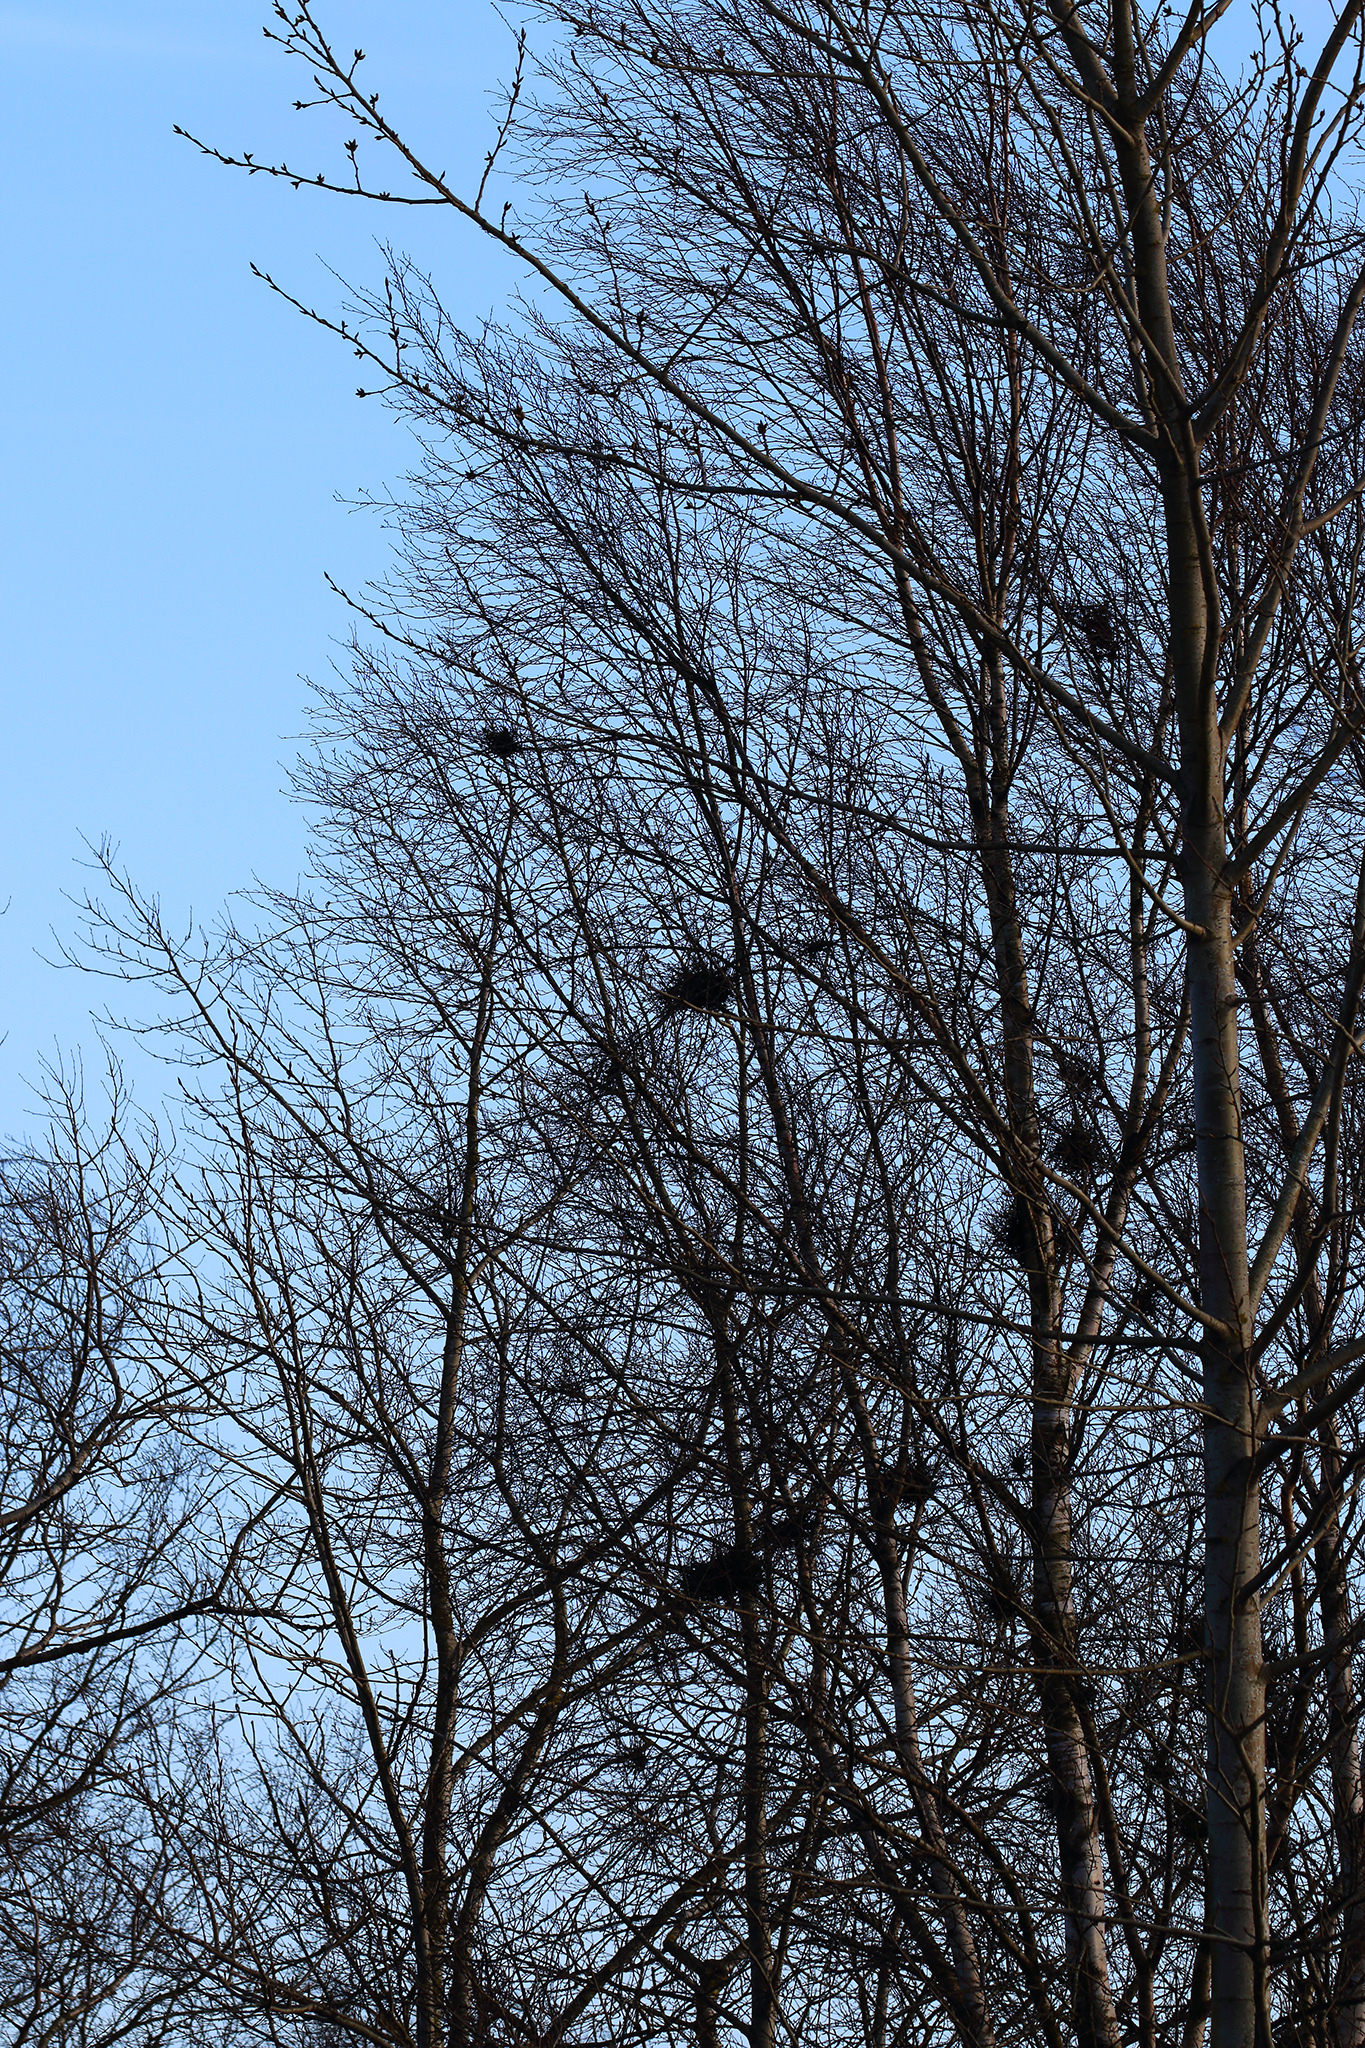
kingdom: Fungi
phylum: Ascomycota
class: Taphrinomycetes
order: Taphrinales
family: Taphrinaceae
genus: Taphrina
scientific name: Taphrina betulina
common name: Birch besom
